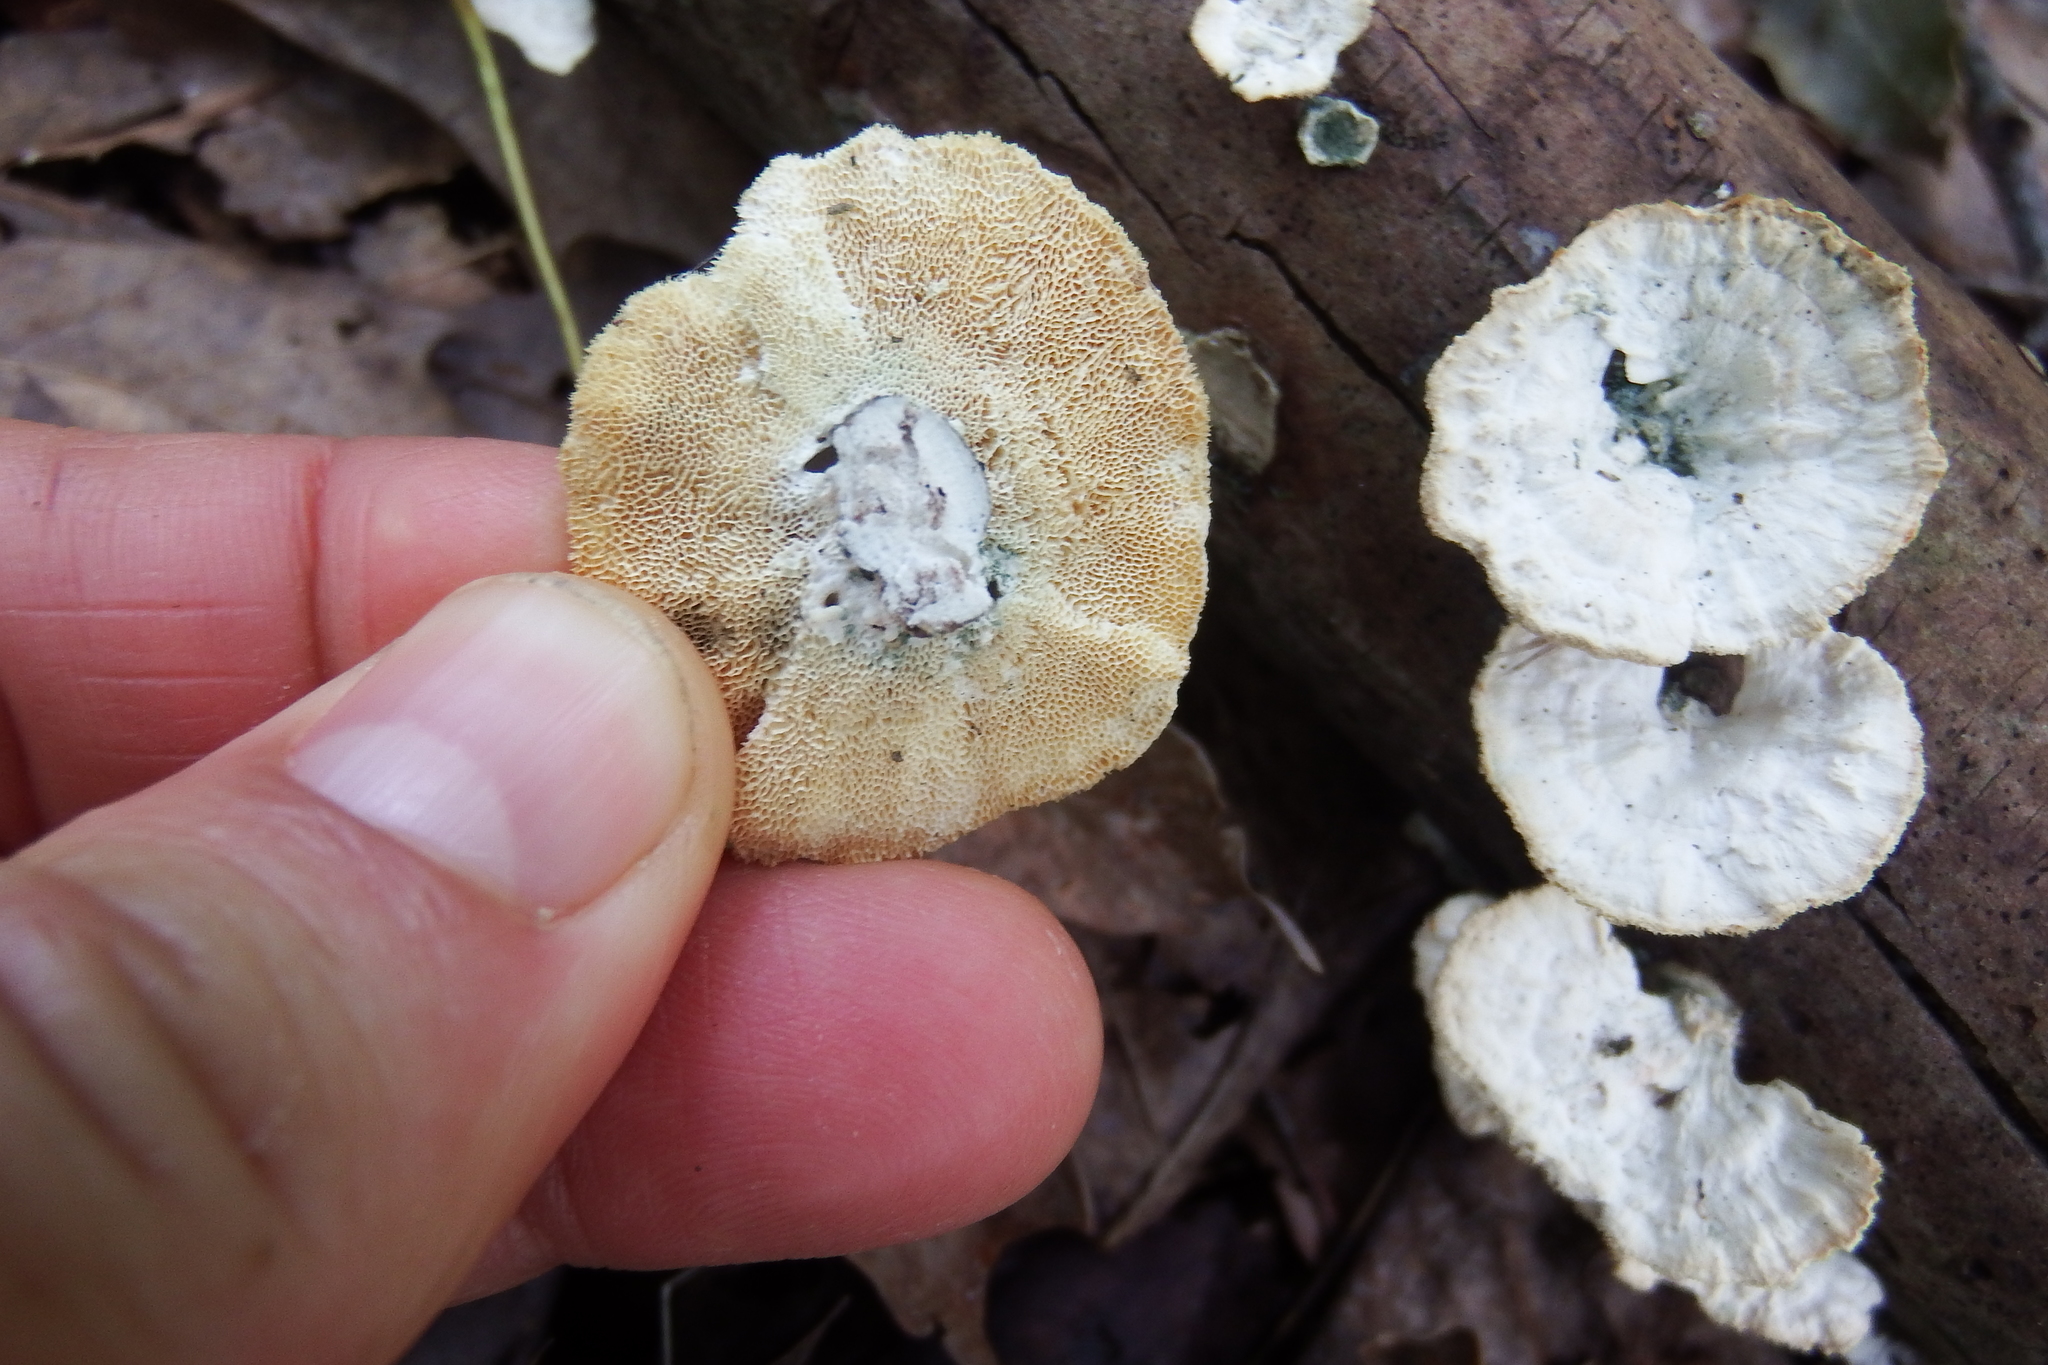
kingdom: Fungi
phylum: Basidiomycota
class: Agaricomycetes
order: Polyporales
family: Polyporaceae
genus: Poronidulus
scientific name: Poronidulus conchifer
